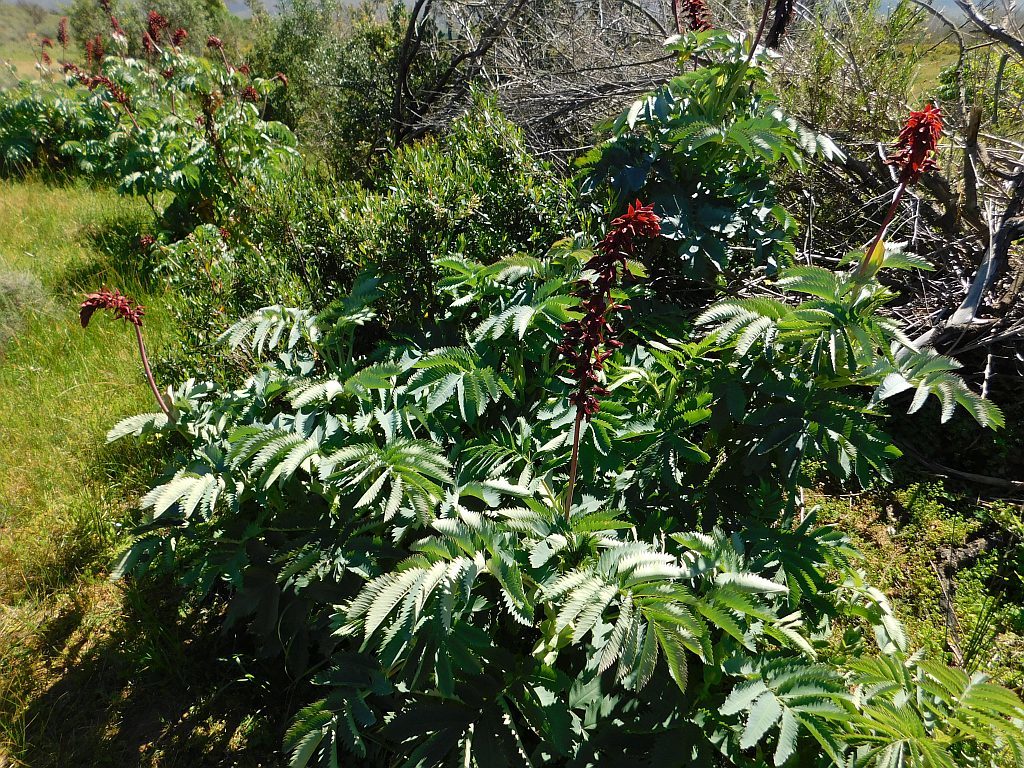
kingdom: Plantae
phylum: Tracheophyta
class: Magnoliopsida
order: Geraniales
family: Melianthaceae
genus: Melianthus
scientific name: Melianthus major
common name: Honey-flower
